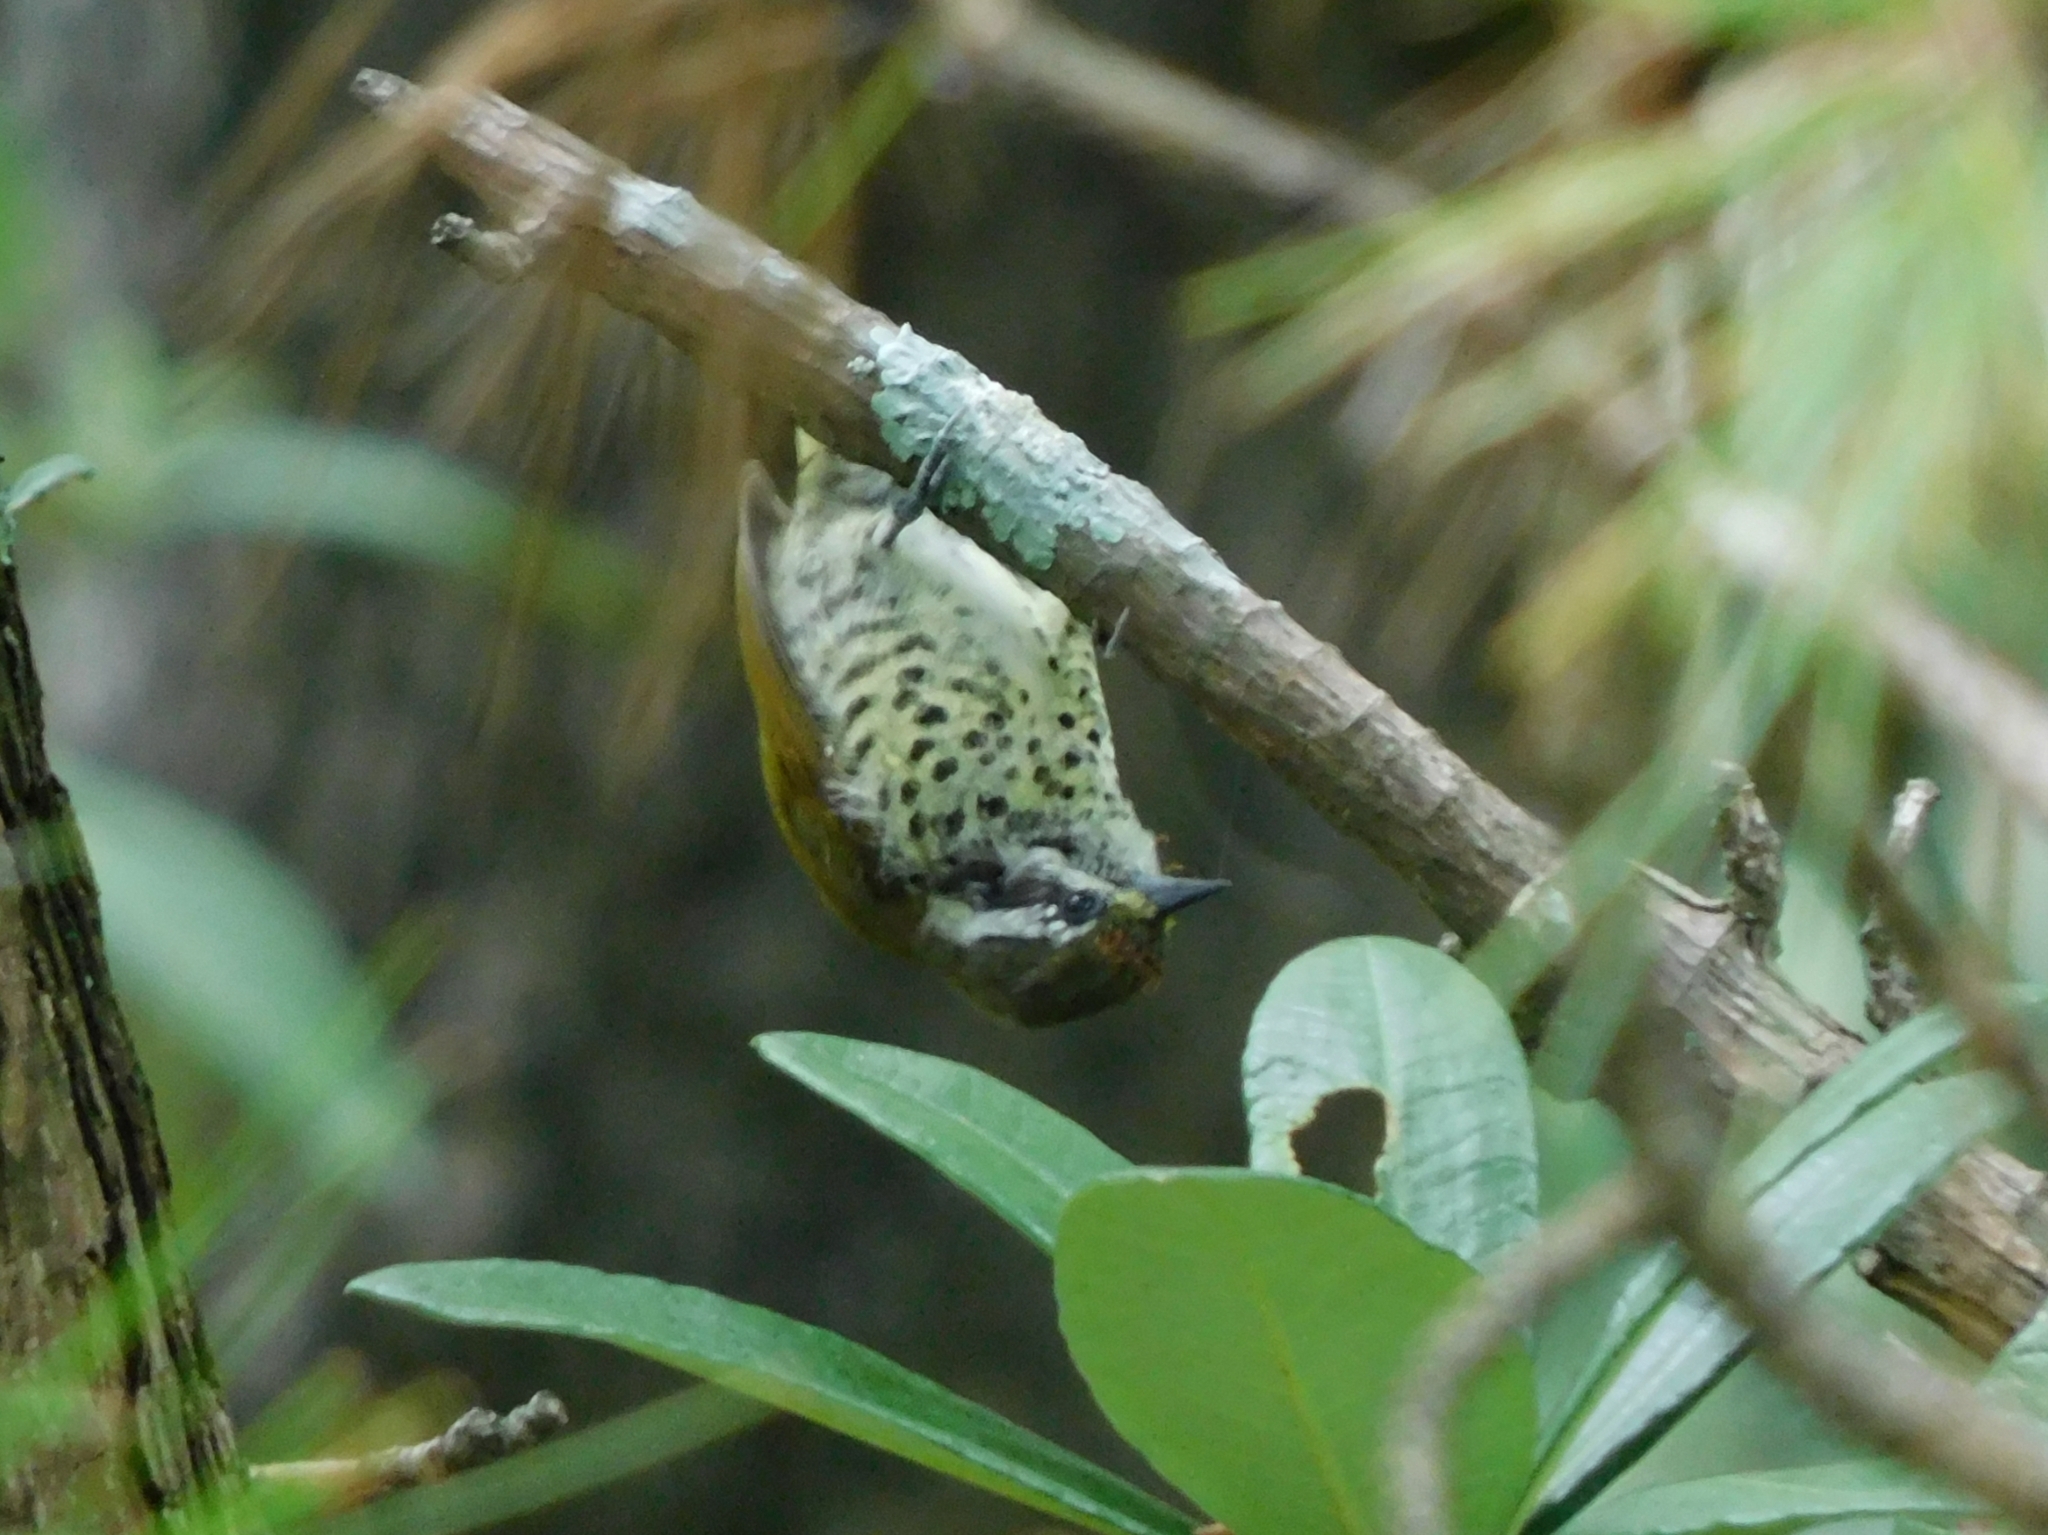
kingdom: Animalia
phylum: Chordata
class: Aves
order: Piciformes
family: Picidae
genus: Picumnus
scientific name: Picumnus innominatus
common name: Speckled piculet
